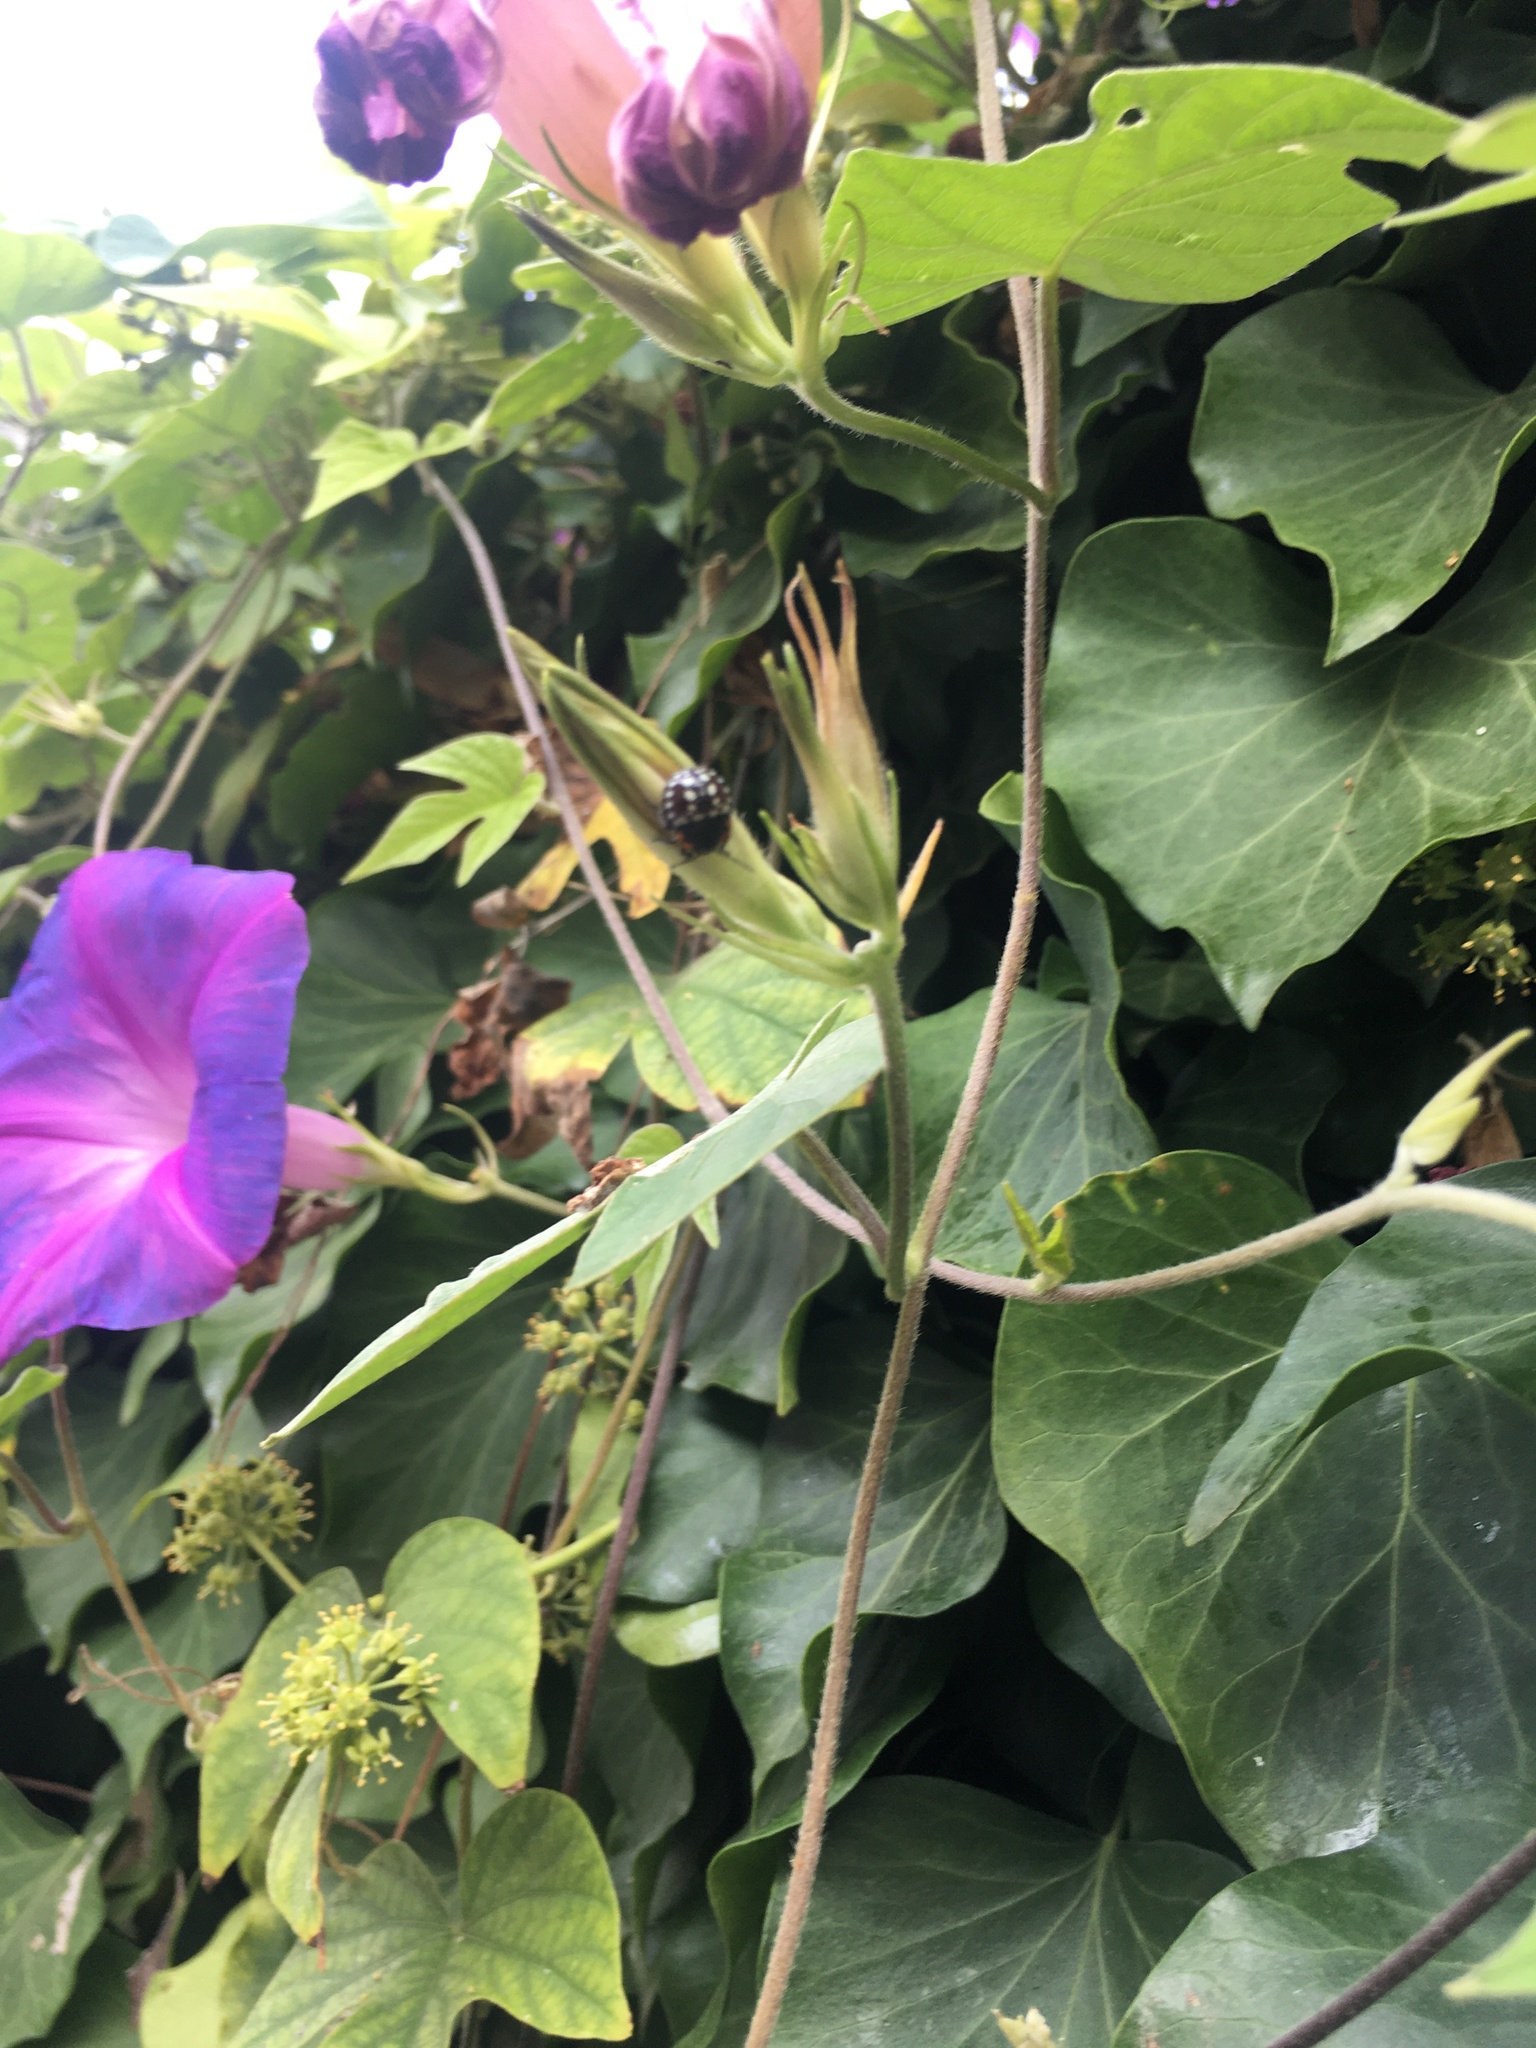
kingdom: Animalia
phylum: Arthropoda
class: Insecta
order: Hemiptera
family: Pentatomidae
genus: Nezara
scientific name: Nezara viridula
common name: Southern green stink bug
